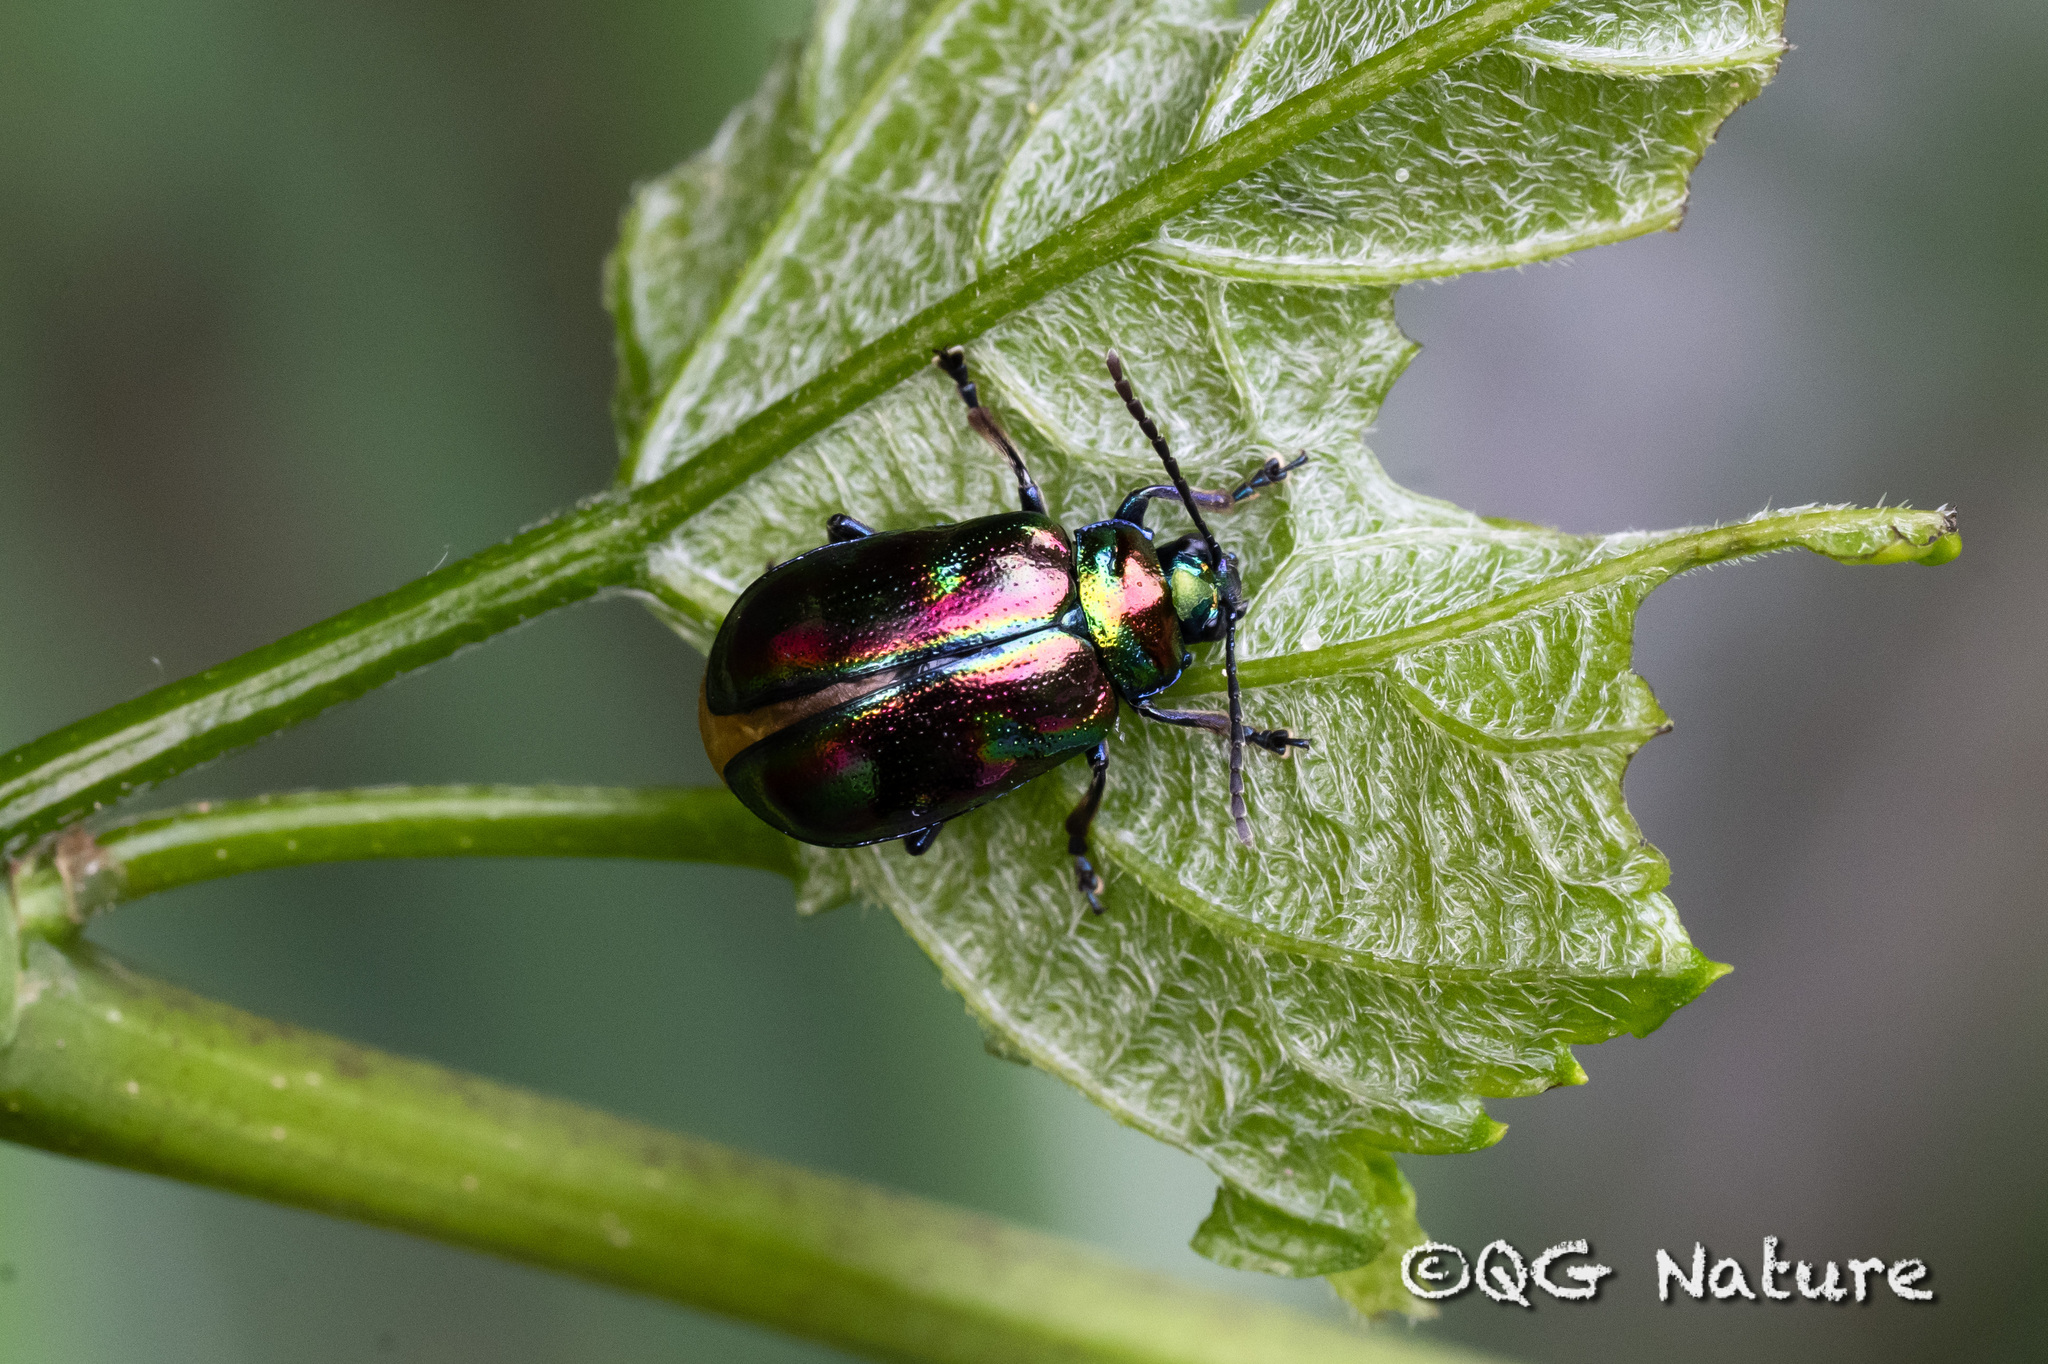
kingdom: Animalia
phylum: Arthropoda
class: Insecta
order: Coleoptera
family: Chrysomelidae
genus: Gallerucida
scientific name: Gallerucida
